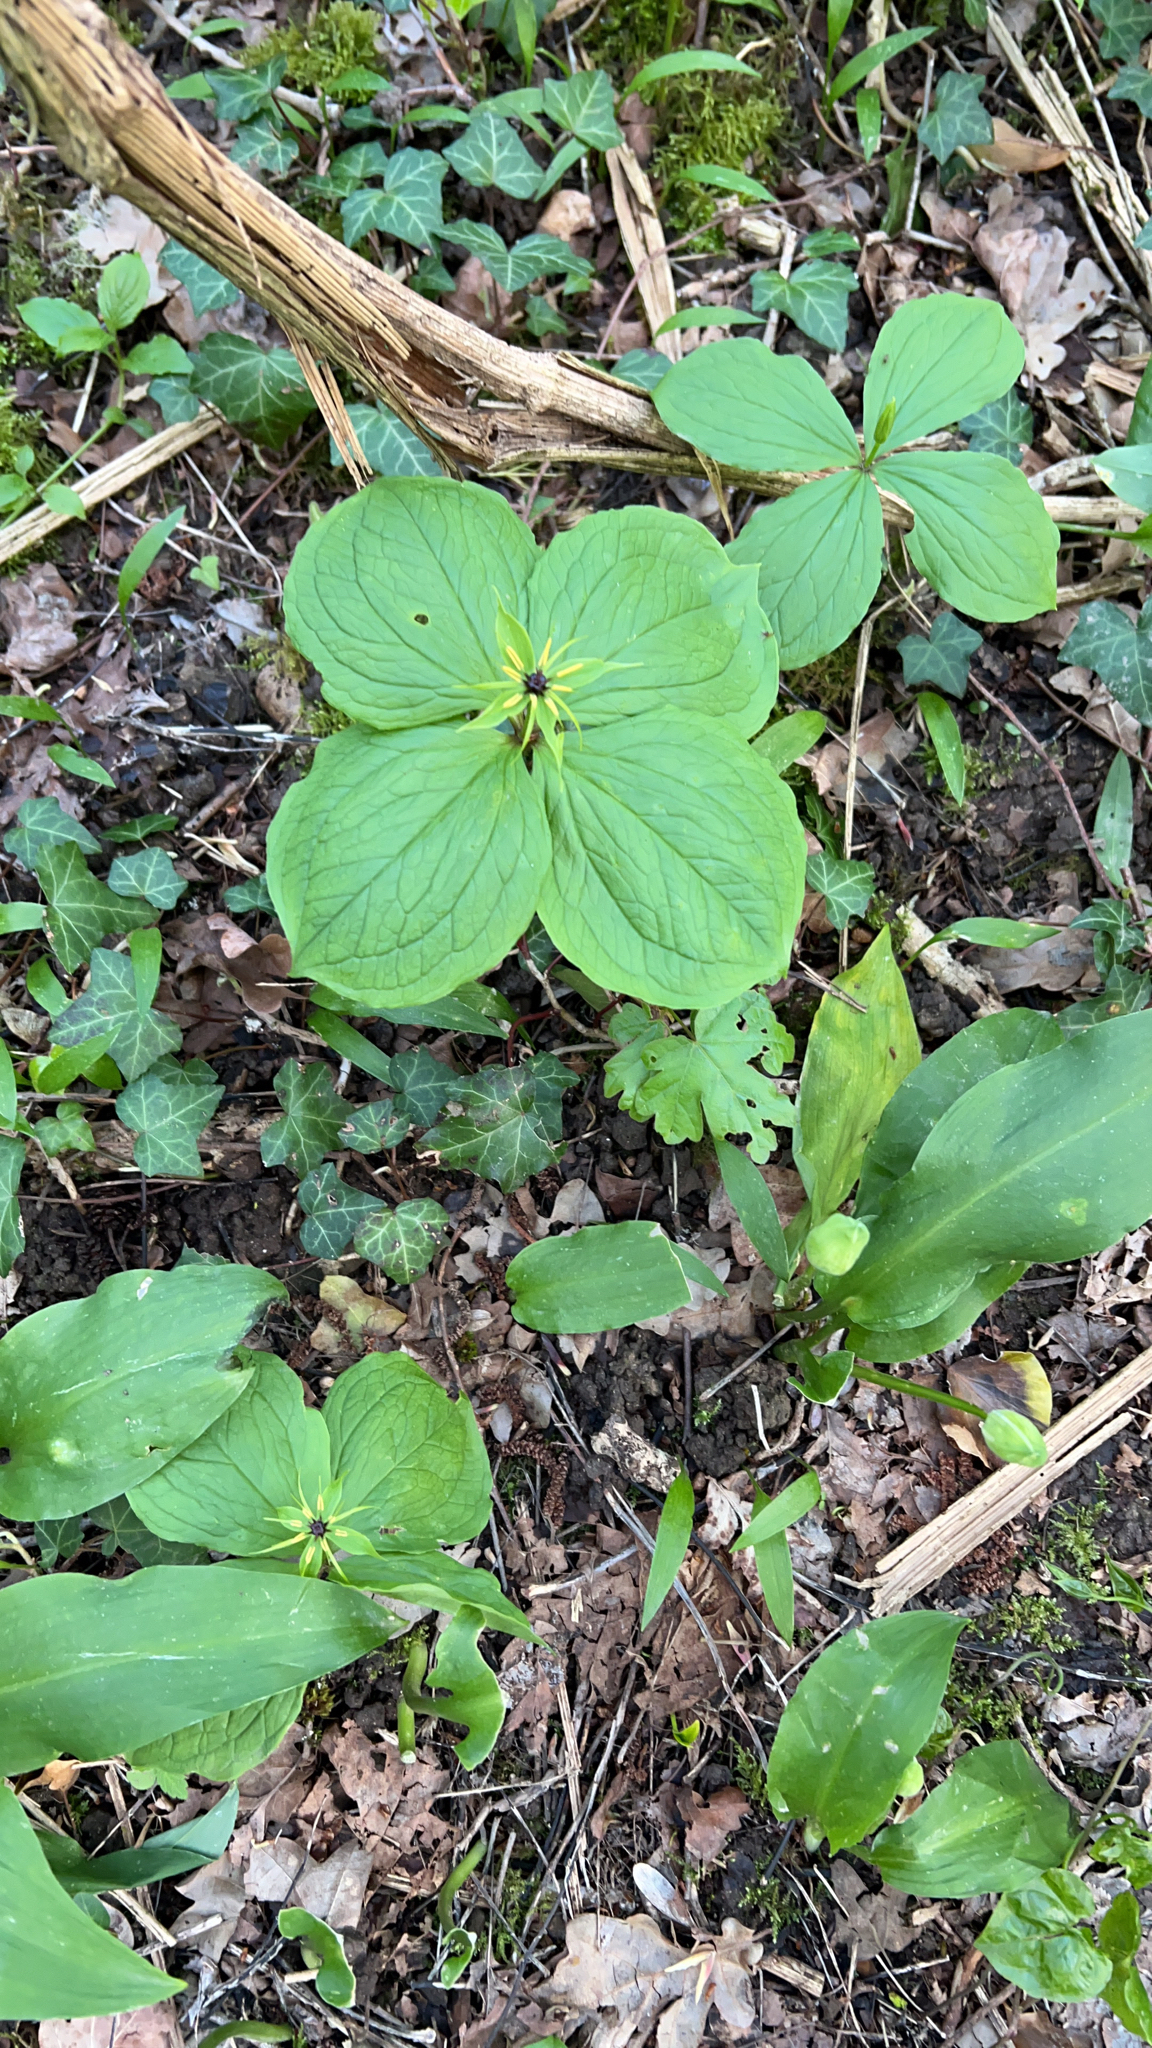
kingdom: Plantae
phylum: Tracheophyta
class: Liliopsida
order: Liliales
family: Melanthiaceae
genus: Paris
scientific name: Paris quadrifolia
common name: Herb-paris
